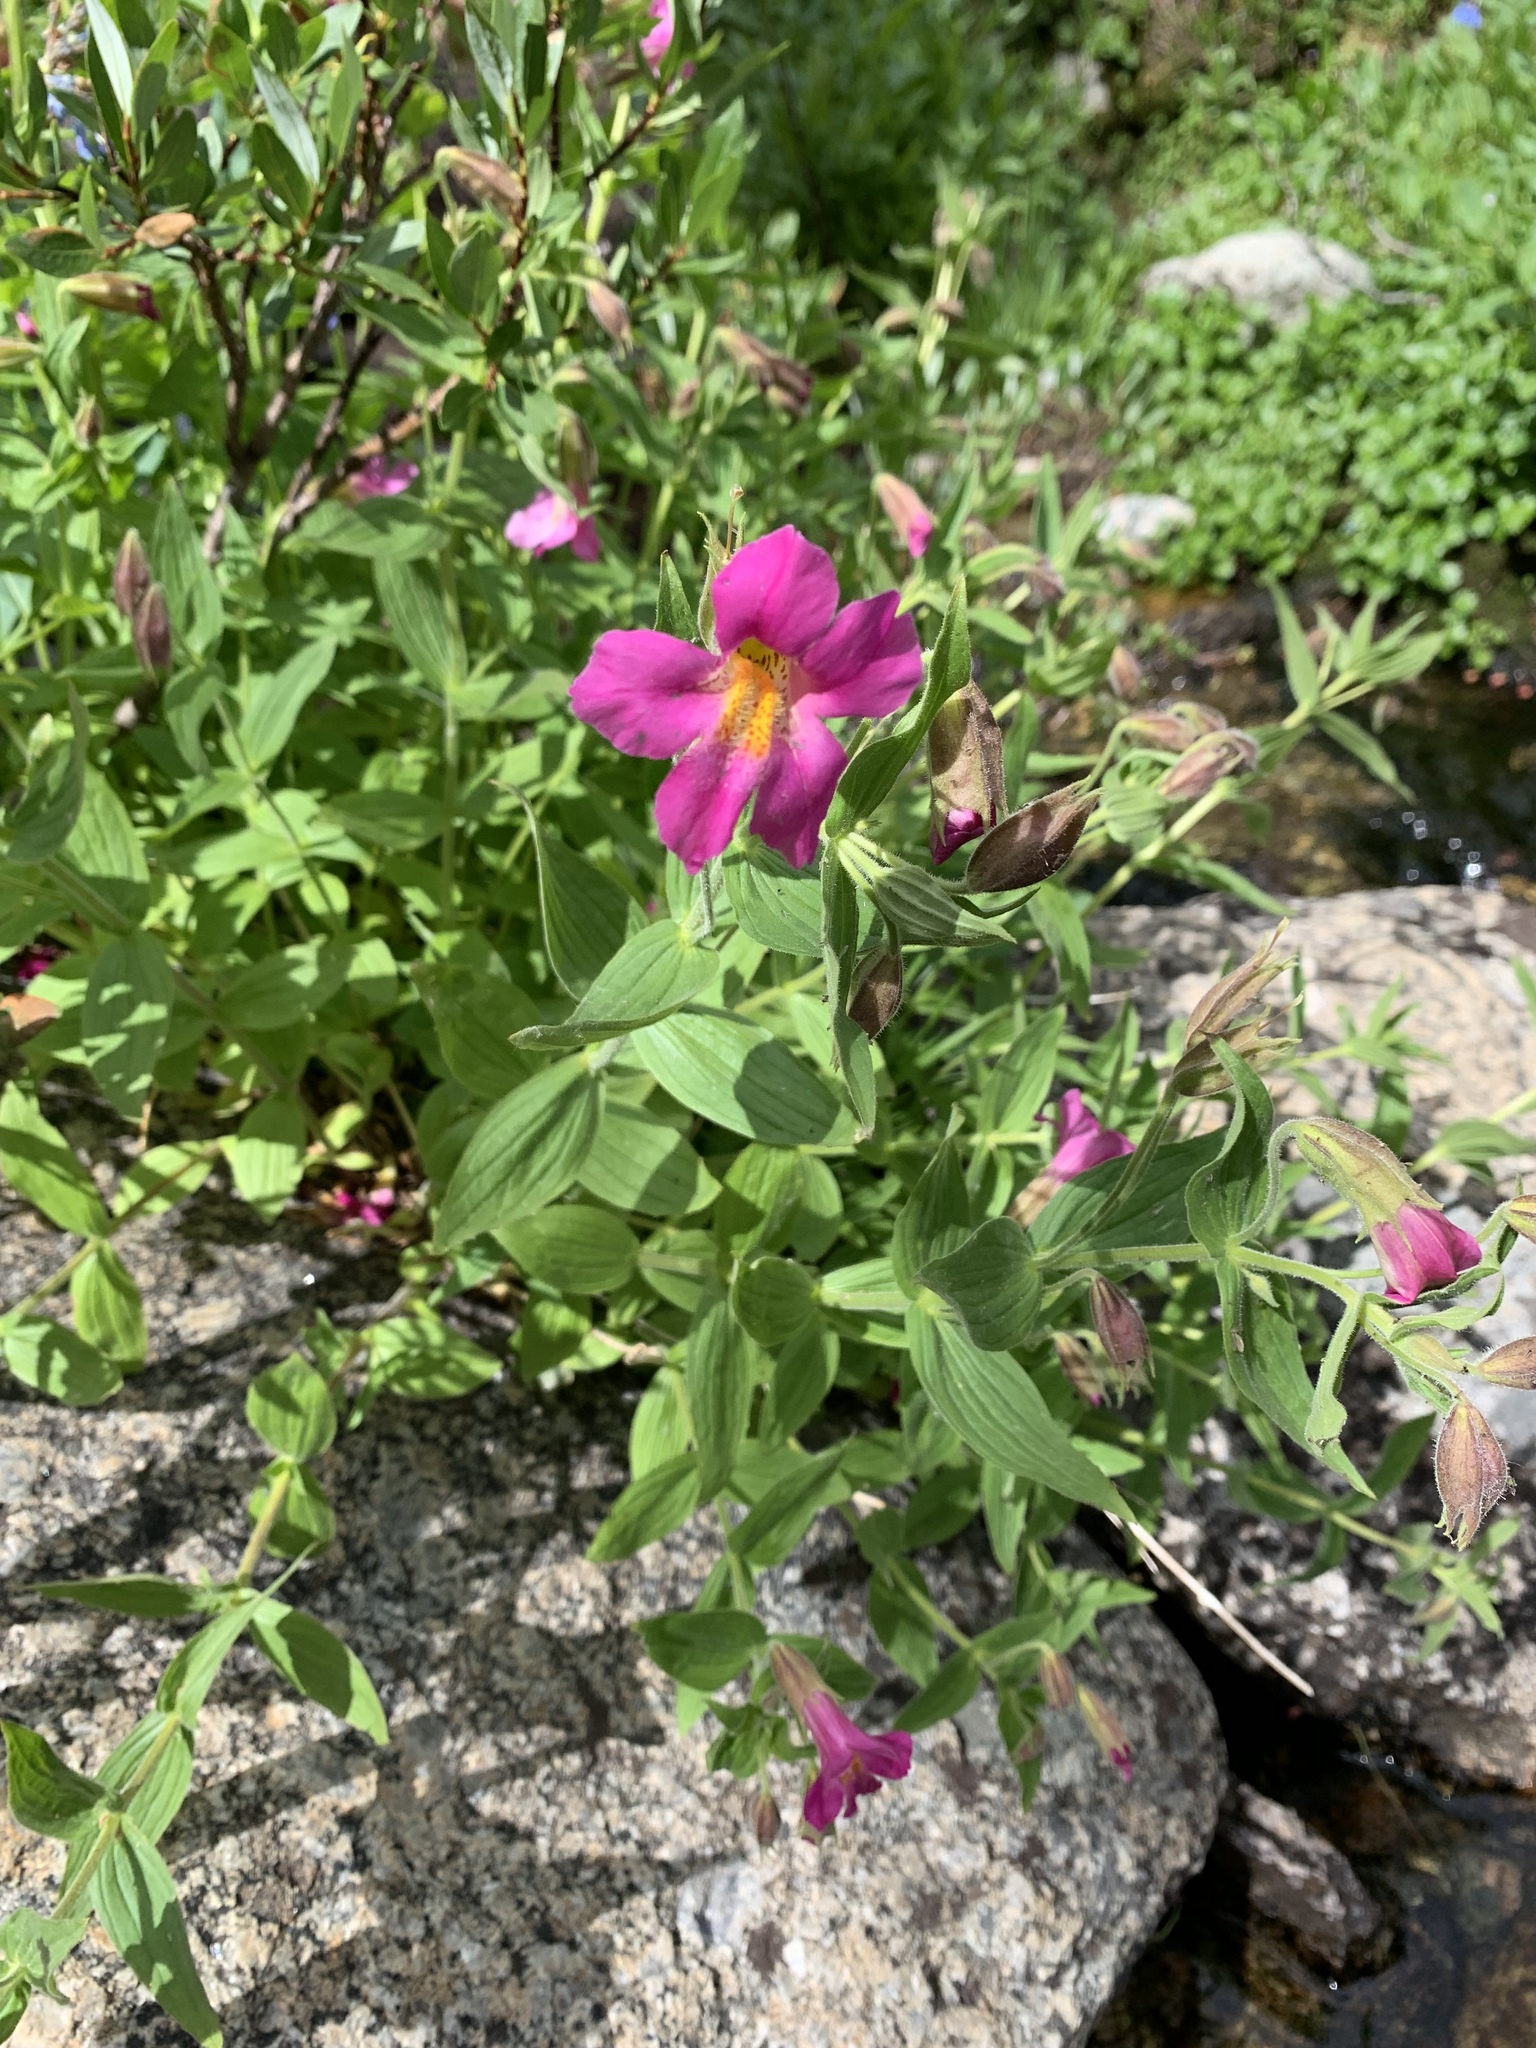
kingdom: Plantae
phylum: Tracheophyta
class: Magnoliopsida
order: Lamiales
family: Phrymaceae
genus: Erythranthe
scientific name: Erythranthe lewisii
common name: Lewis's monkey-flower
